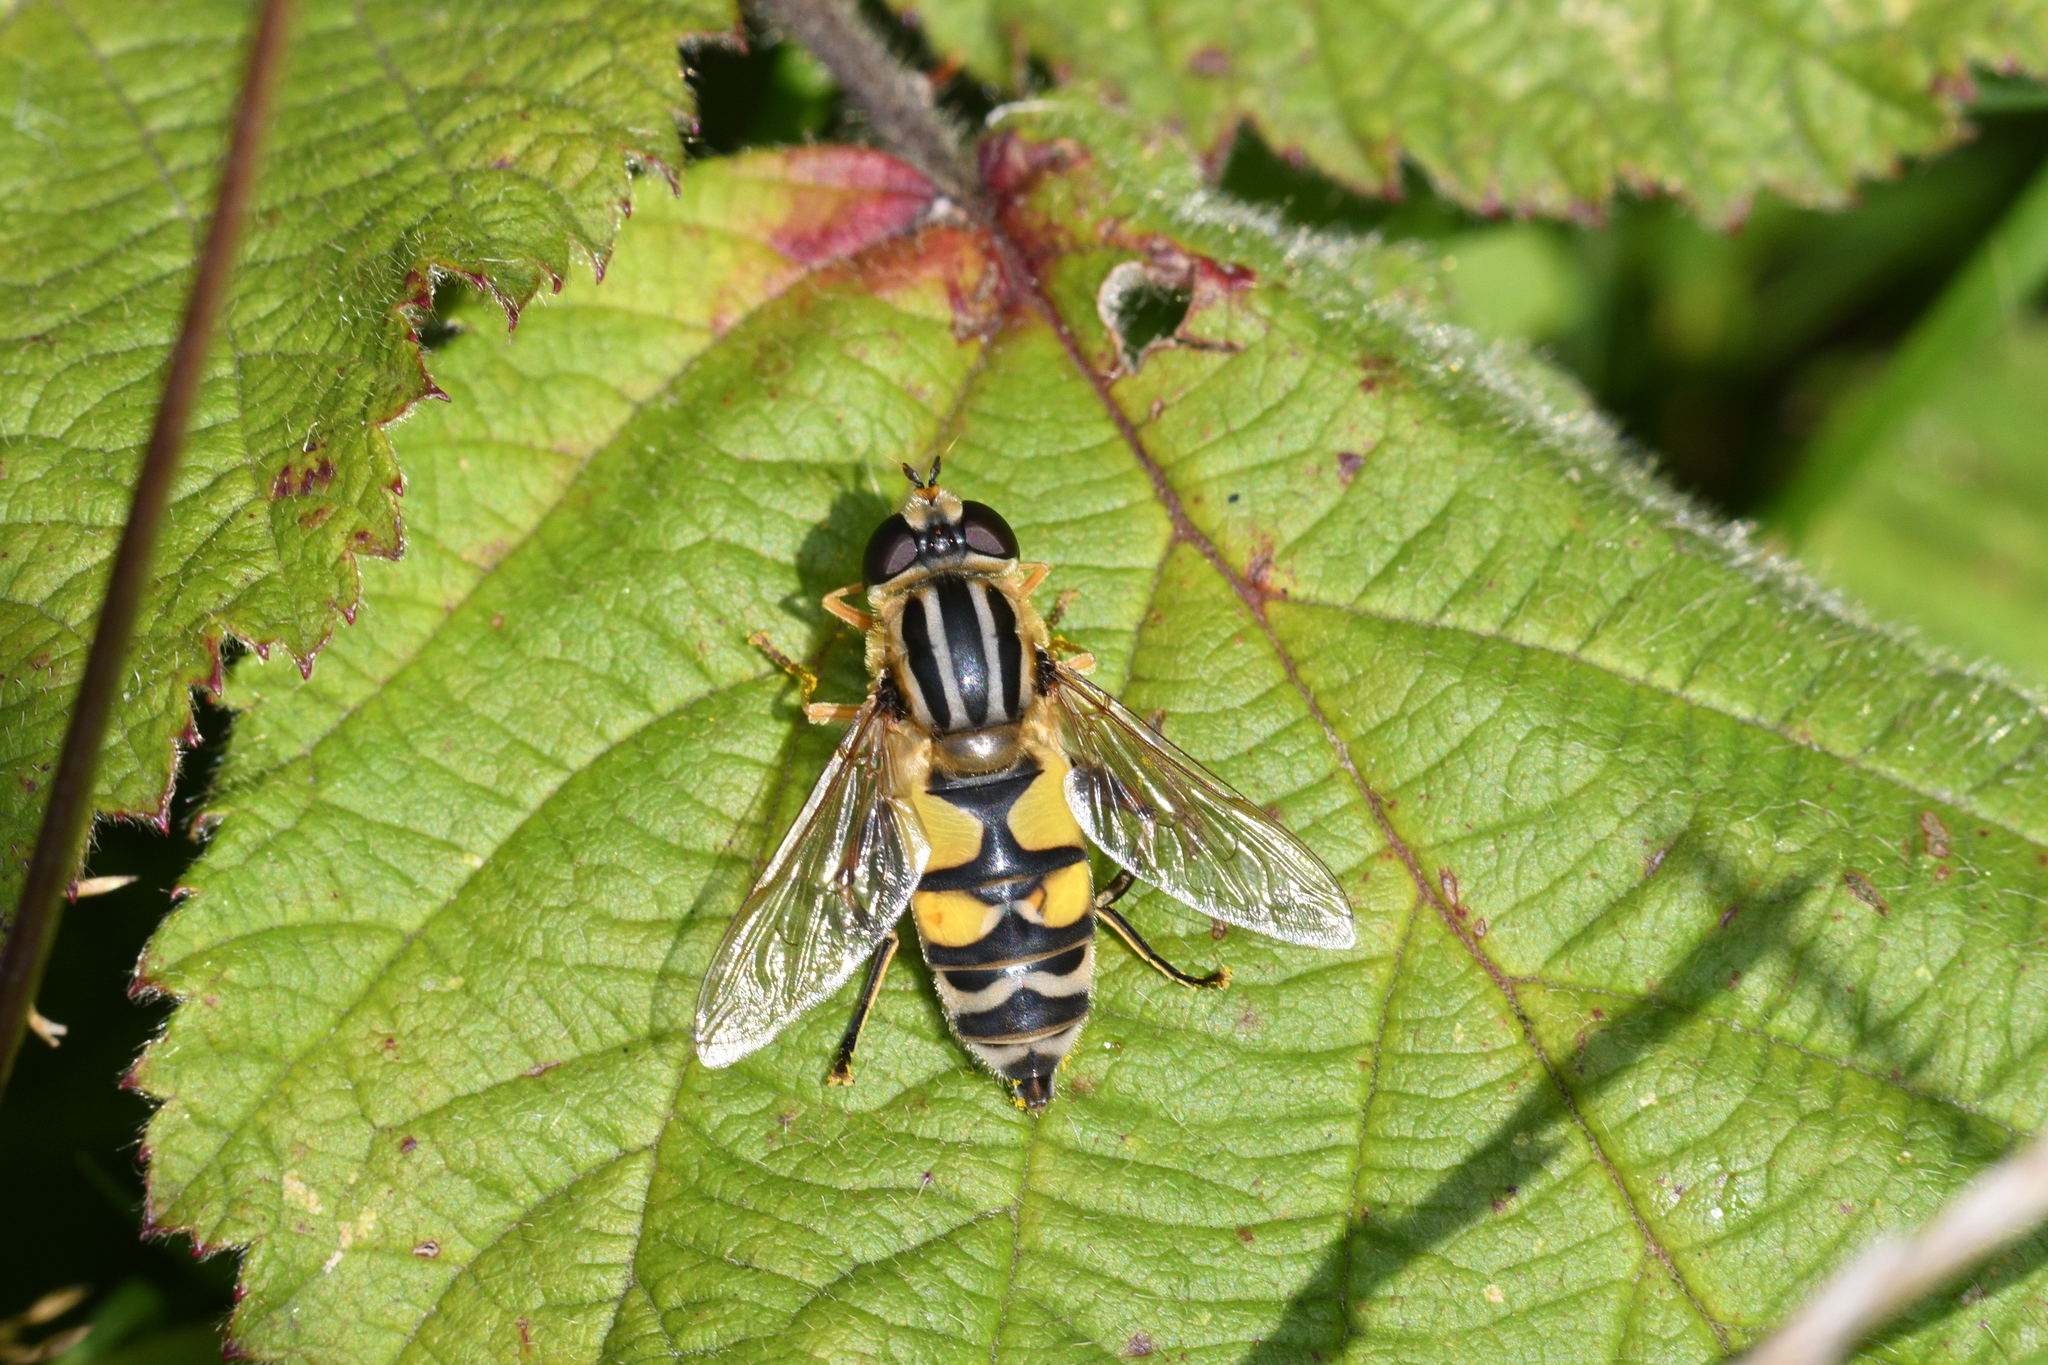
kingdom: Animalia
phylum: Arthropoda
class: Insecta
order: Diptera
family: Syrphidae
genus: Helophilus
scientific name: Helophilus trivittatus
